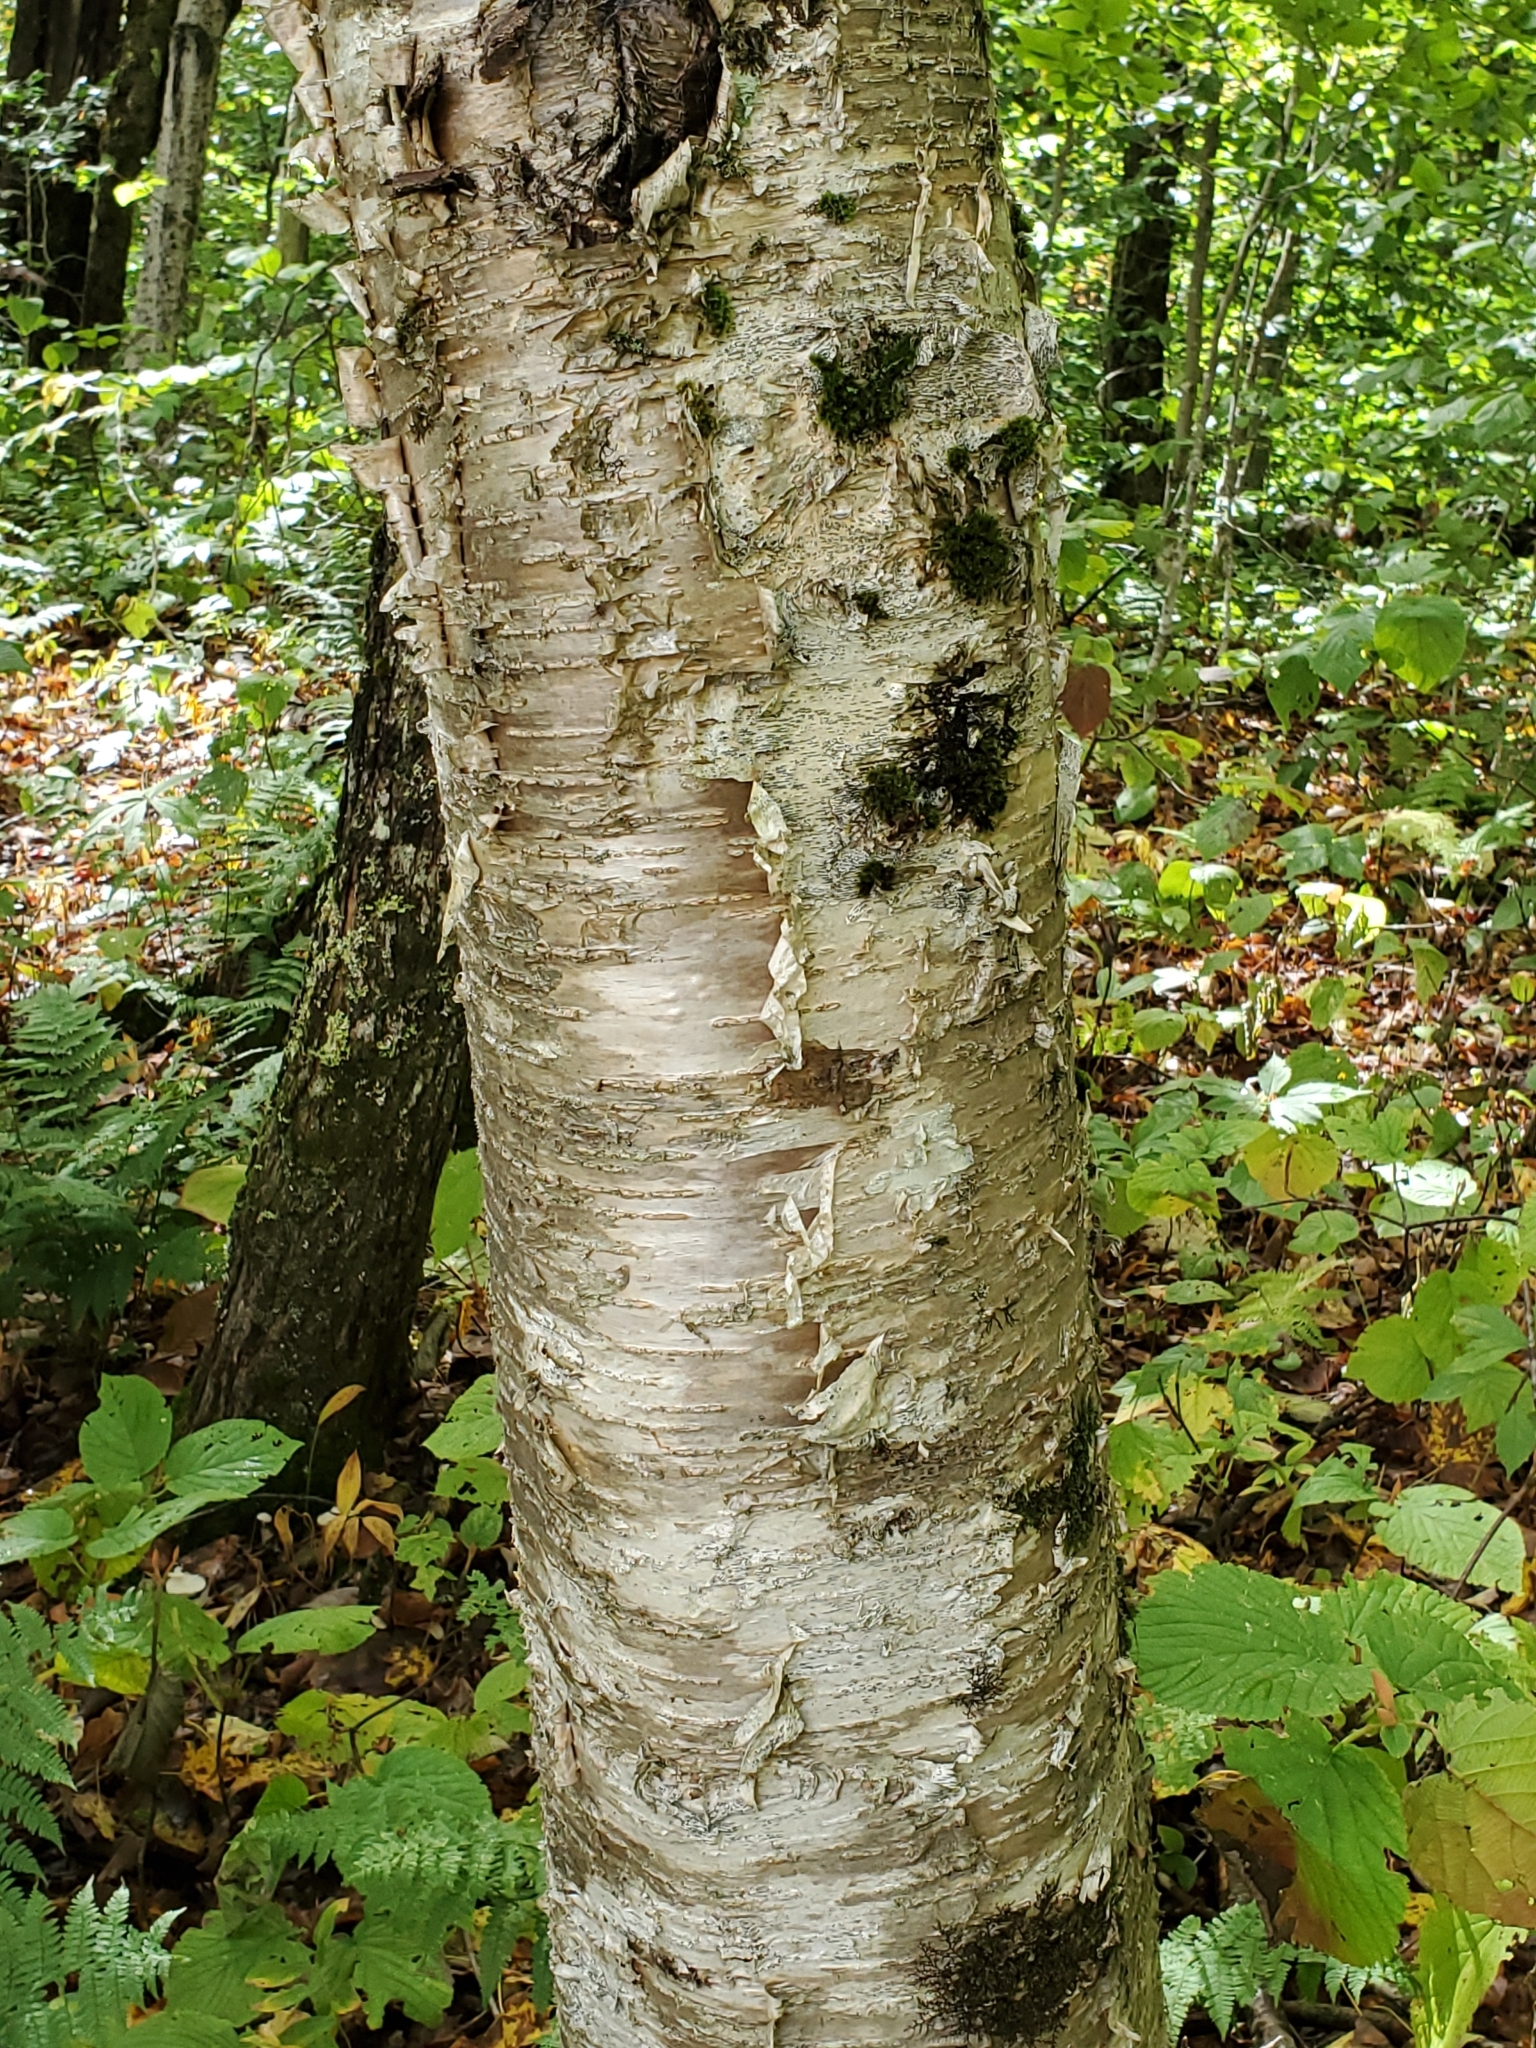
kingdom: Plantae
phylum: Tracheophyta
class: Magnoliopsida
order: Fagales
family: Betulaceae
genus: Betula
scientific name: Betula alleghaniensis
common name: Yellow birch
